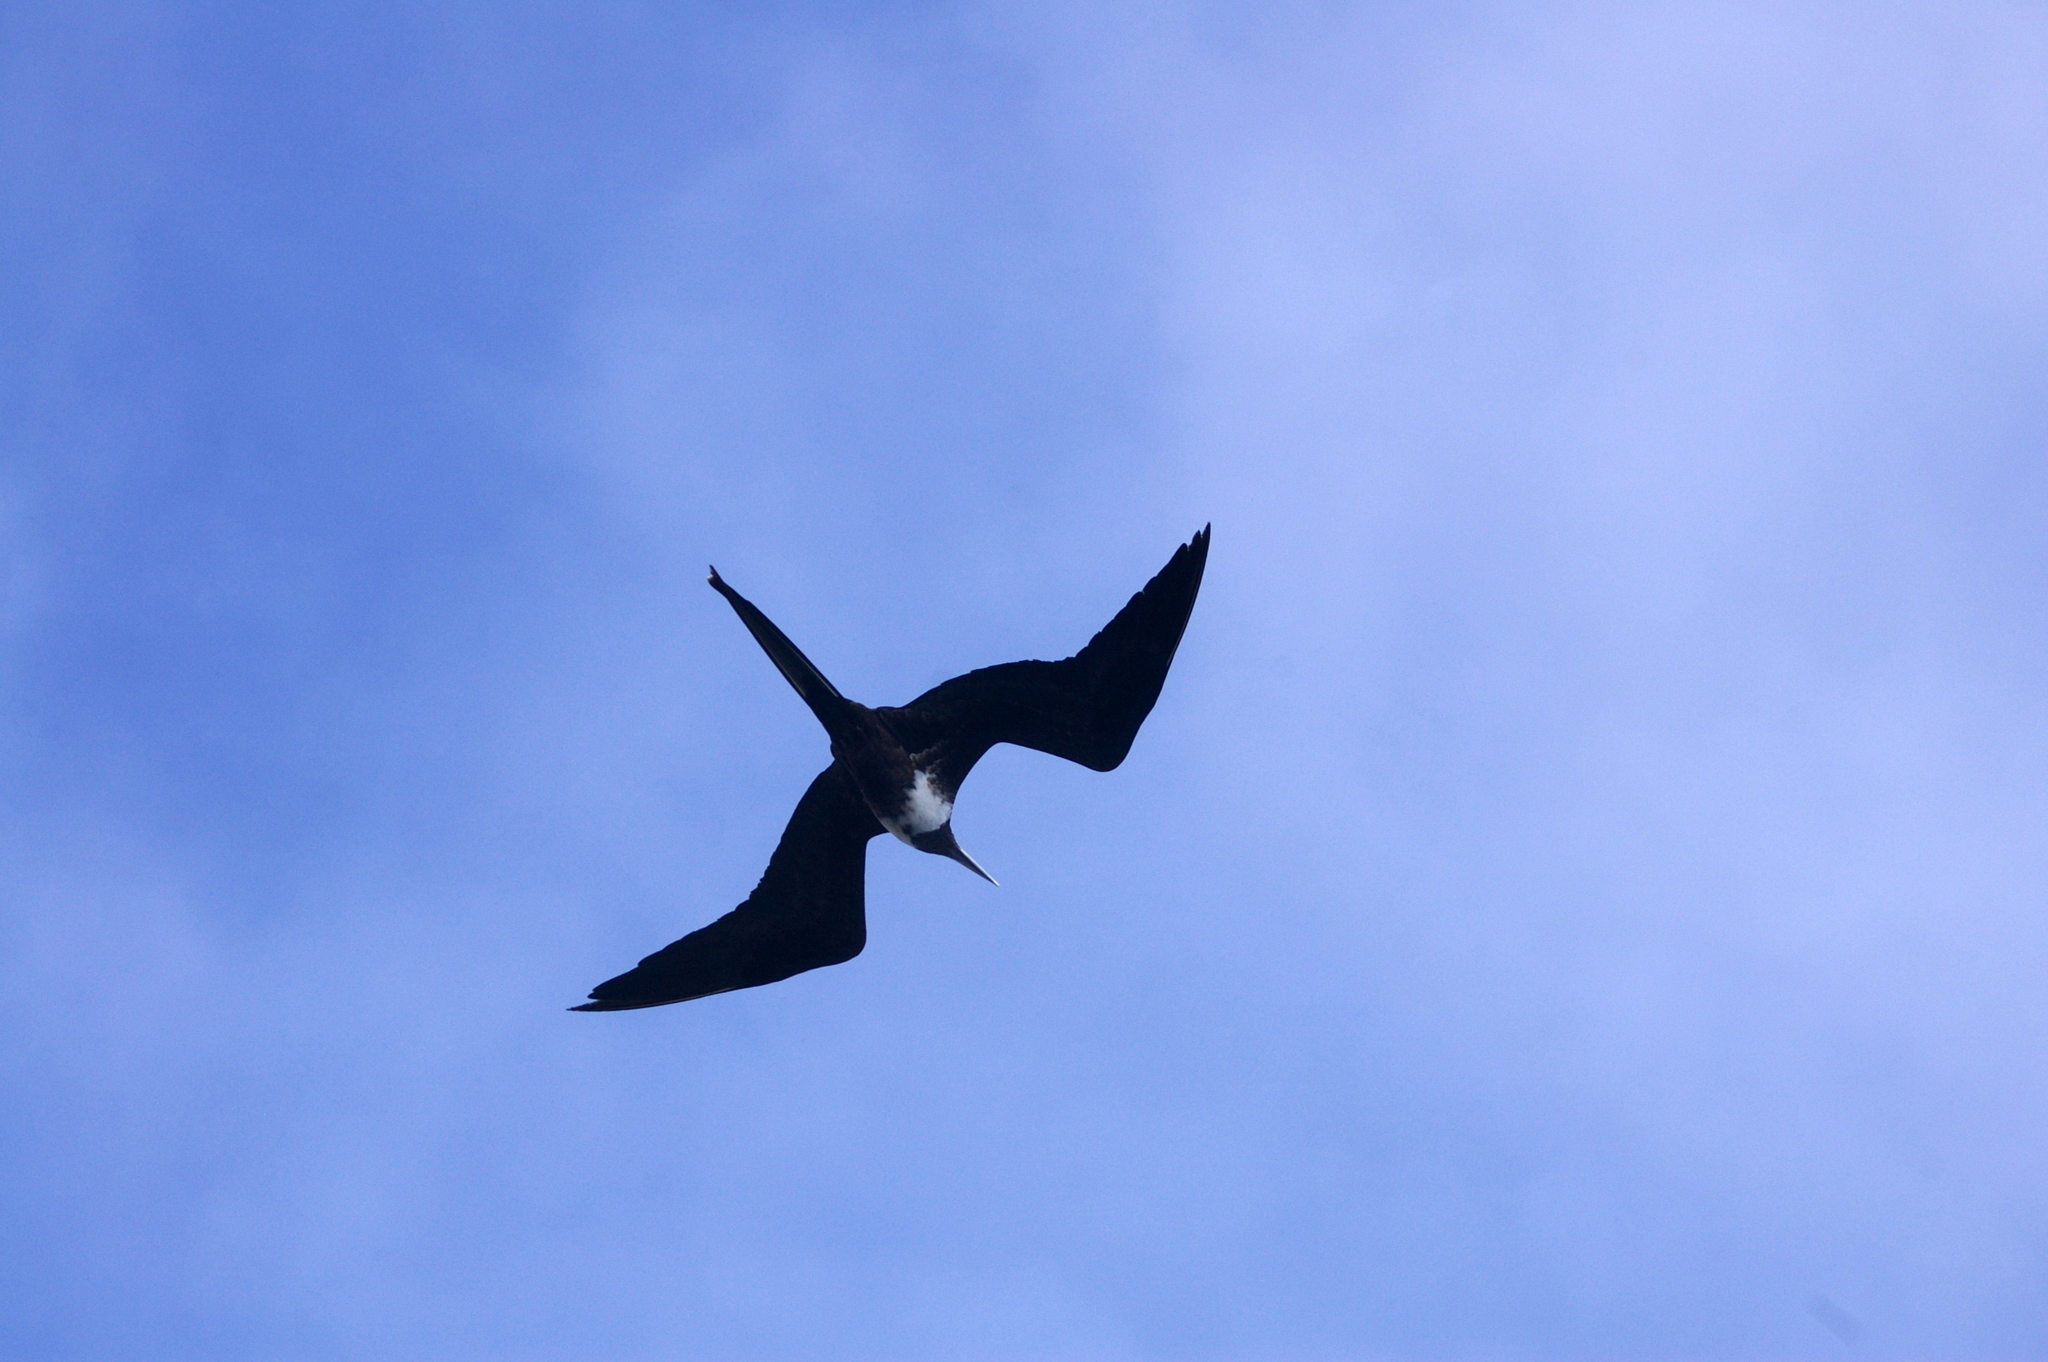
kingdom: Animalia
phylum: Chordata
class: Aves
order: Suliformes
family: Fregatidae
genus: Fregata
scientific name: Fregata magnificens
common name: Magnificent frigatebird
